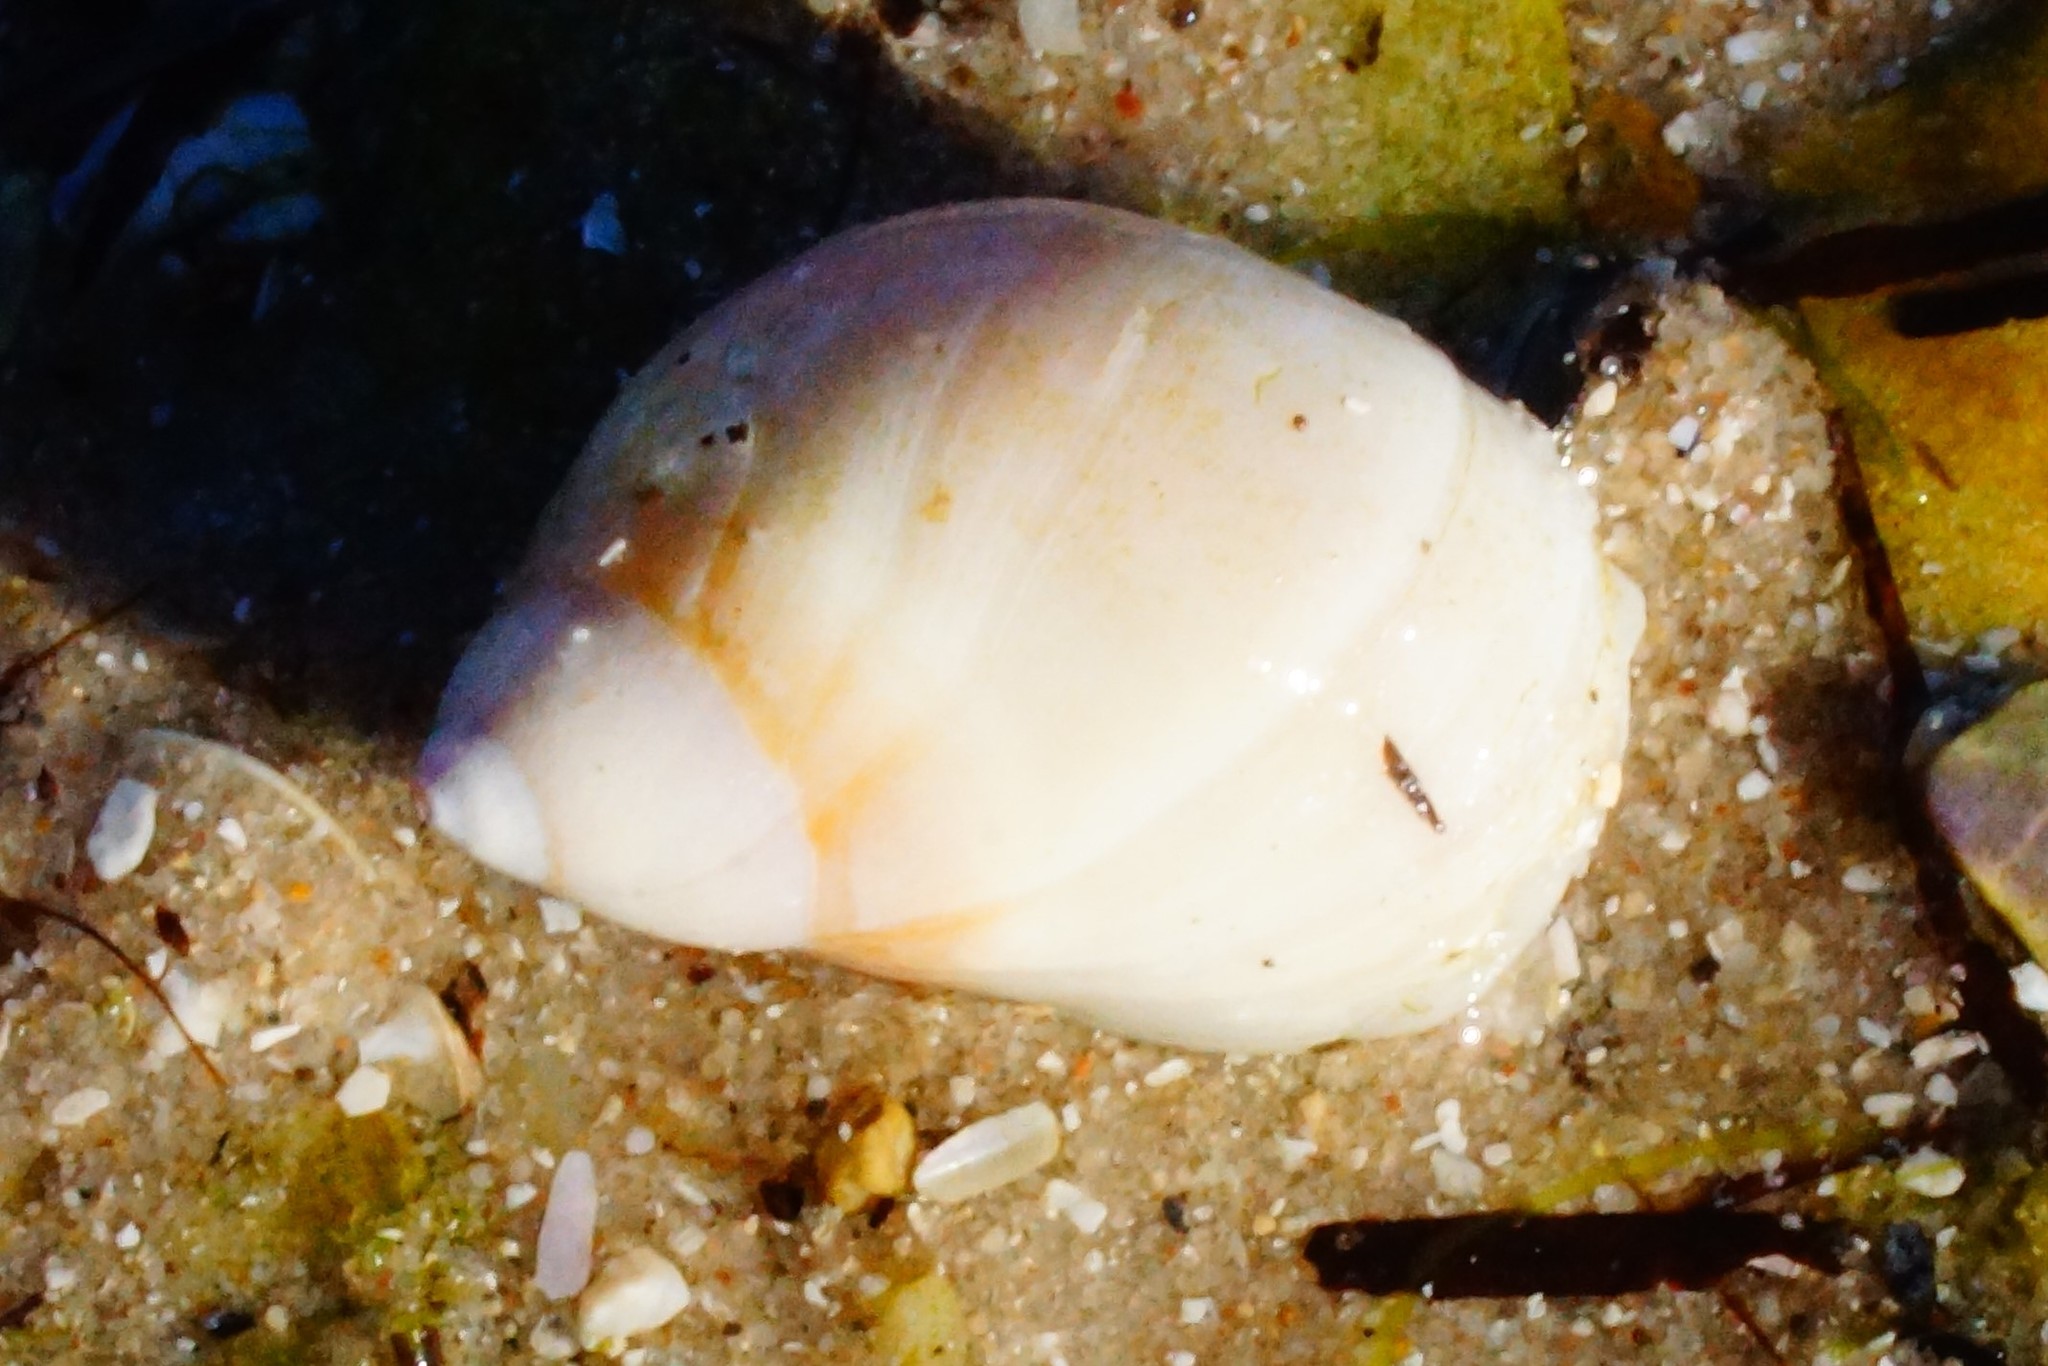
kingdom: Animalia
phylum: Mollusca
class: Gastropoda
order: Littorinimorpha
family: Naticidae
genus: Conuber
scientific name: Conuber conicum
